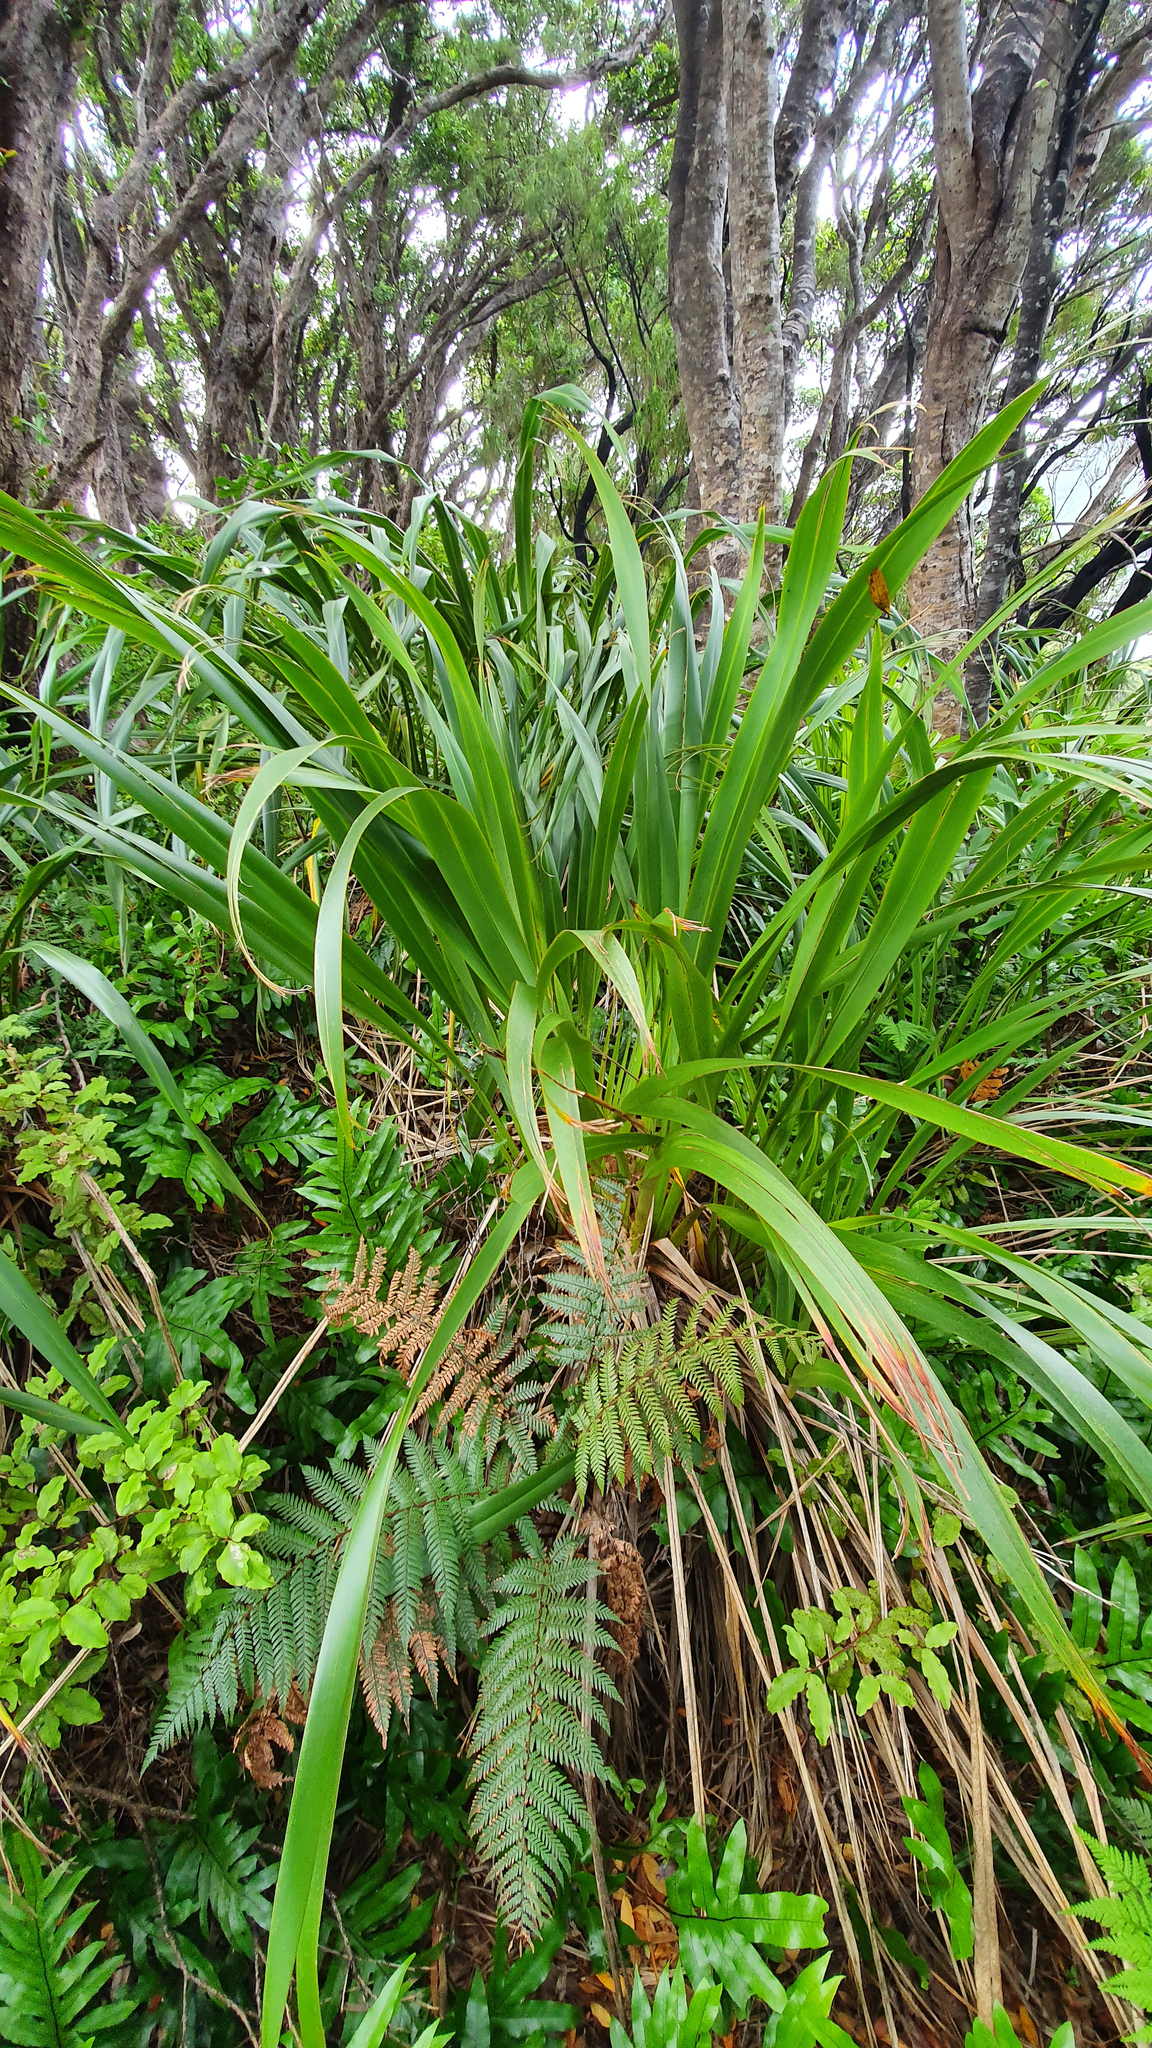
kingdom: Plantae
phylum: Tracheophyta
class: Liliopsida
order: Asparagales
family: Asphodelaceae
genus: Phormium
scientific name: Phormium colensoi
